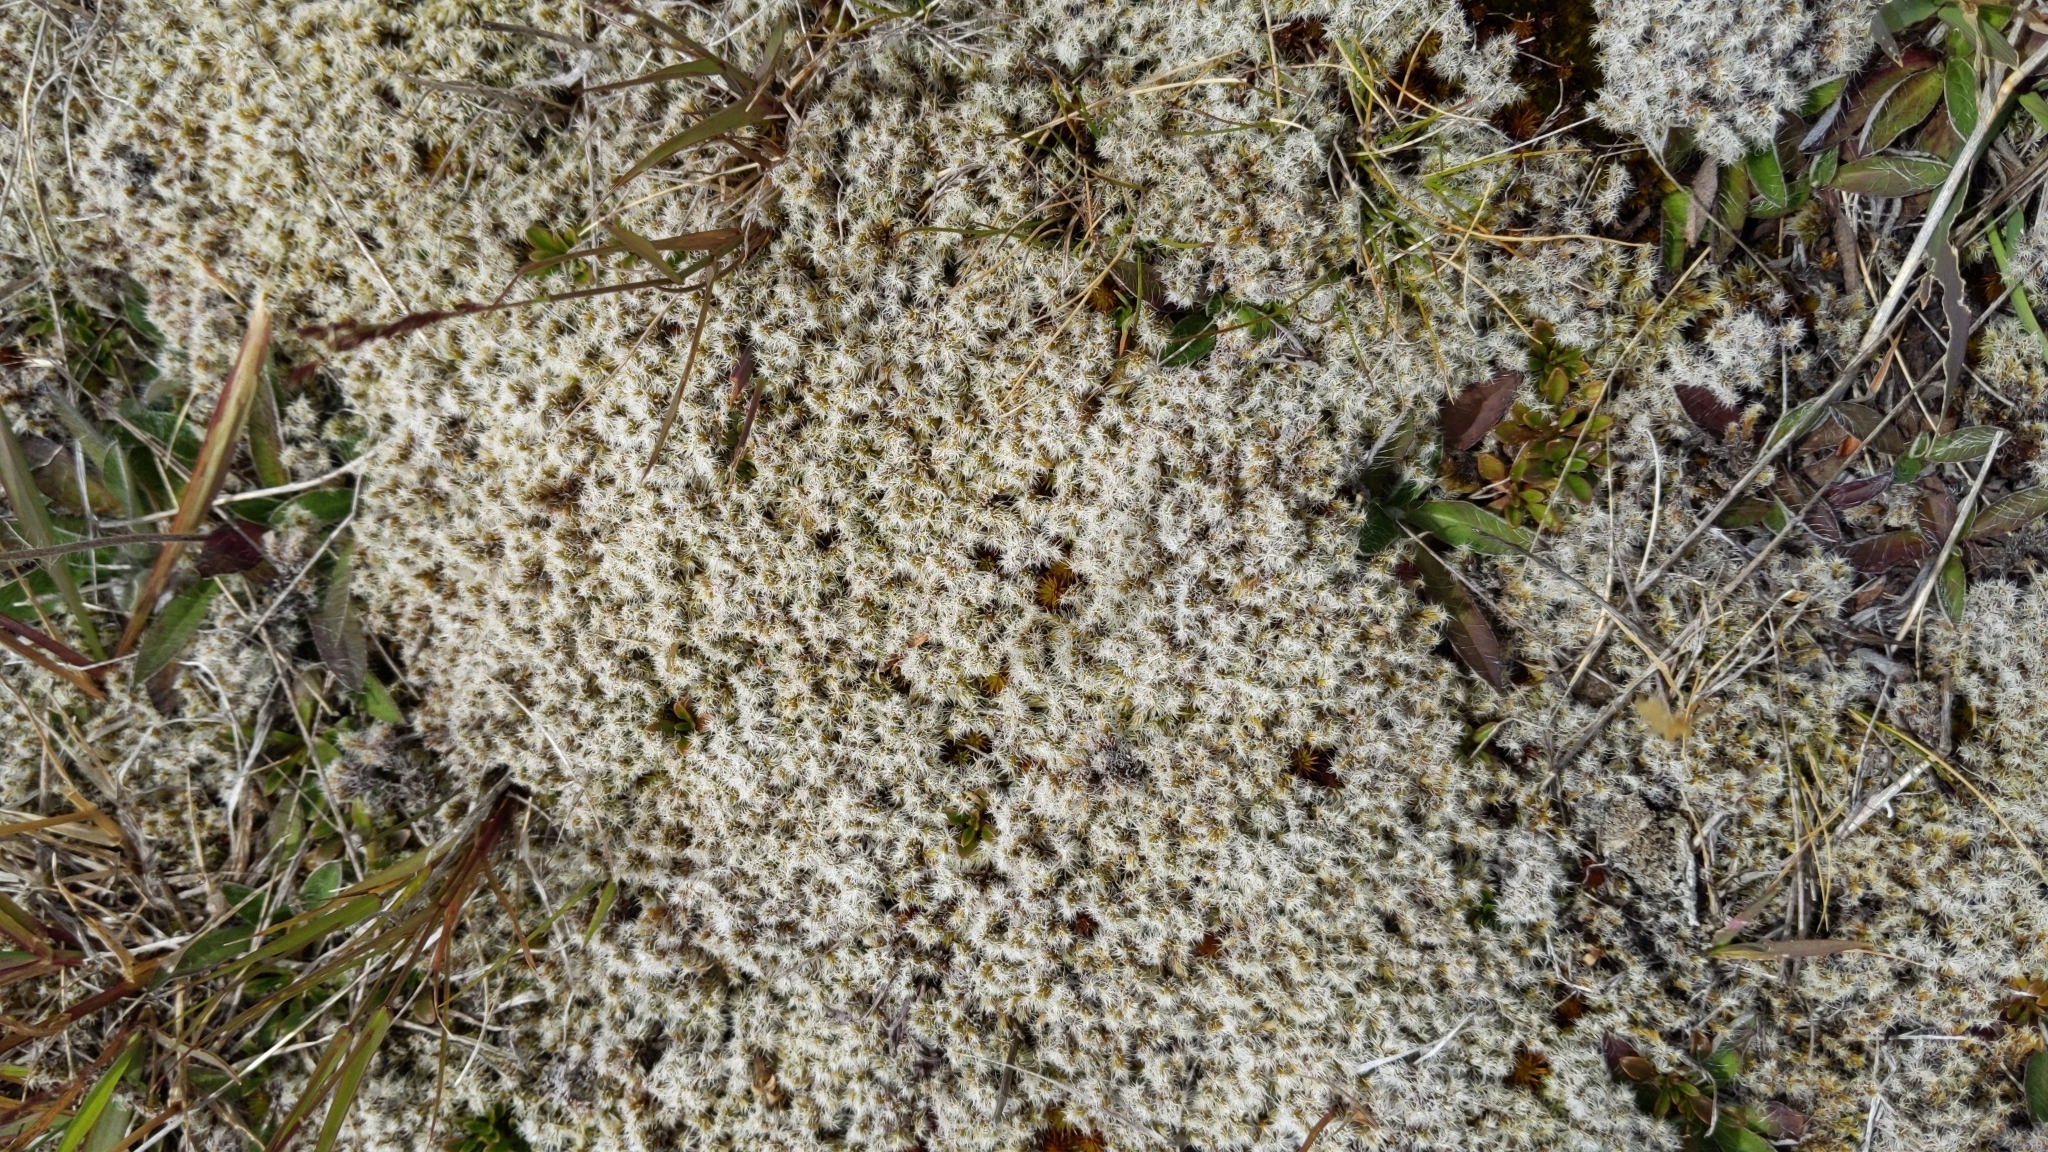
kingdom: Plantae
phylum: Bryophyta
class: Bryopsida
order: Grimmiales
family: Grimmiaceae
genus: Racomitrium
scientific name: Racomitrium lanuginosum
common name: Hoary rock moss
